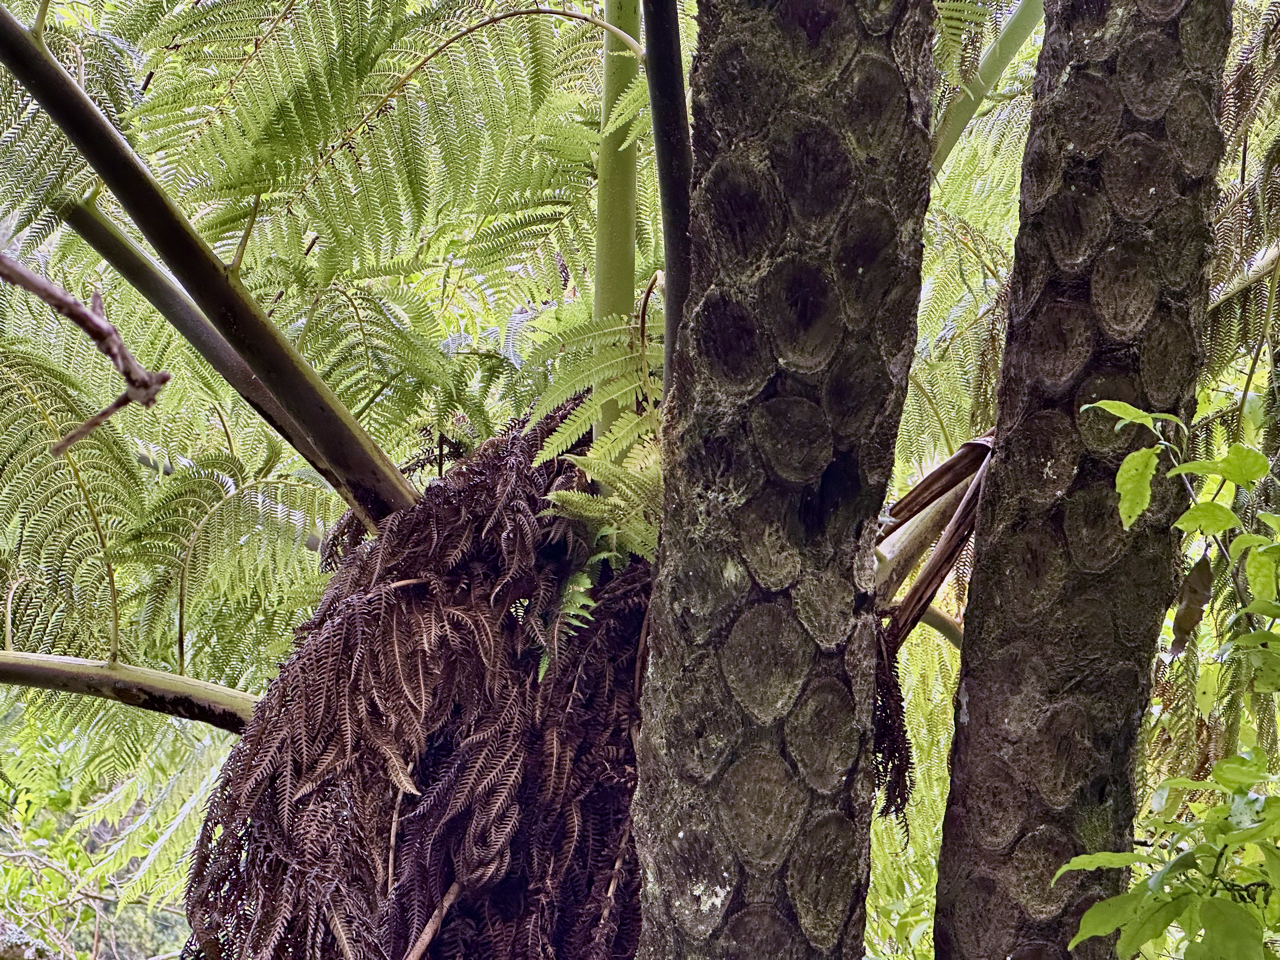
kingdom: Plantae
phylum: Tracheophyta
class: Polypodiopsida
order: Cyatheales
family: Cyatheaceae
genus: Sphaeropteris
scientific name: Sphaeropteris medullaris
